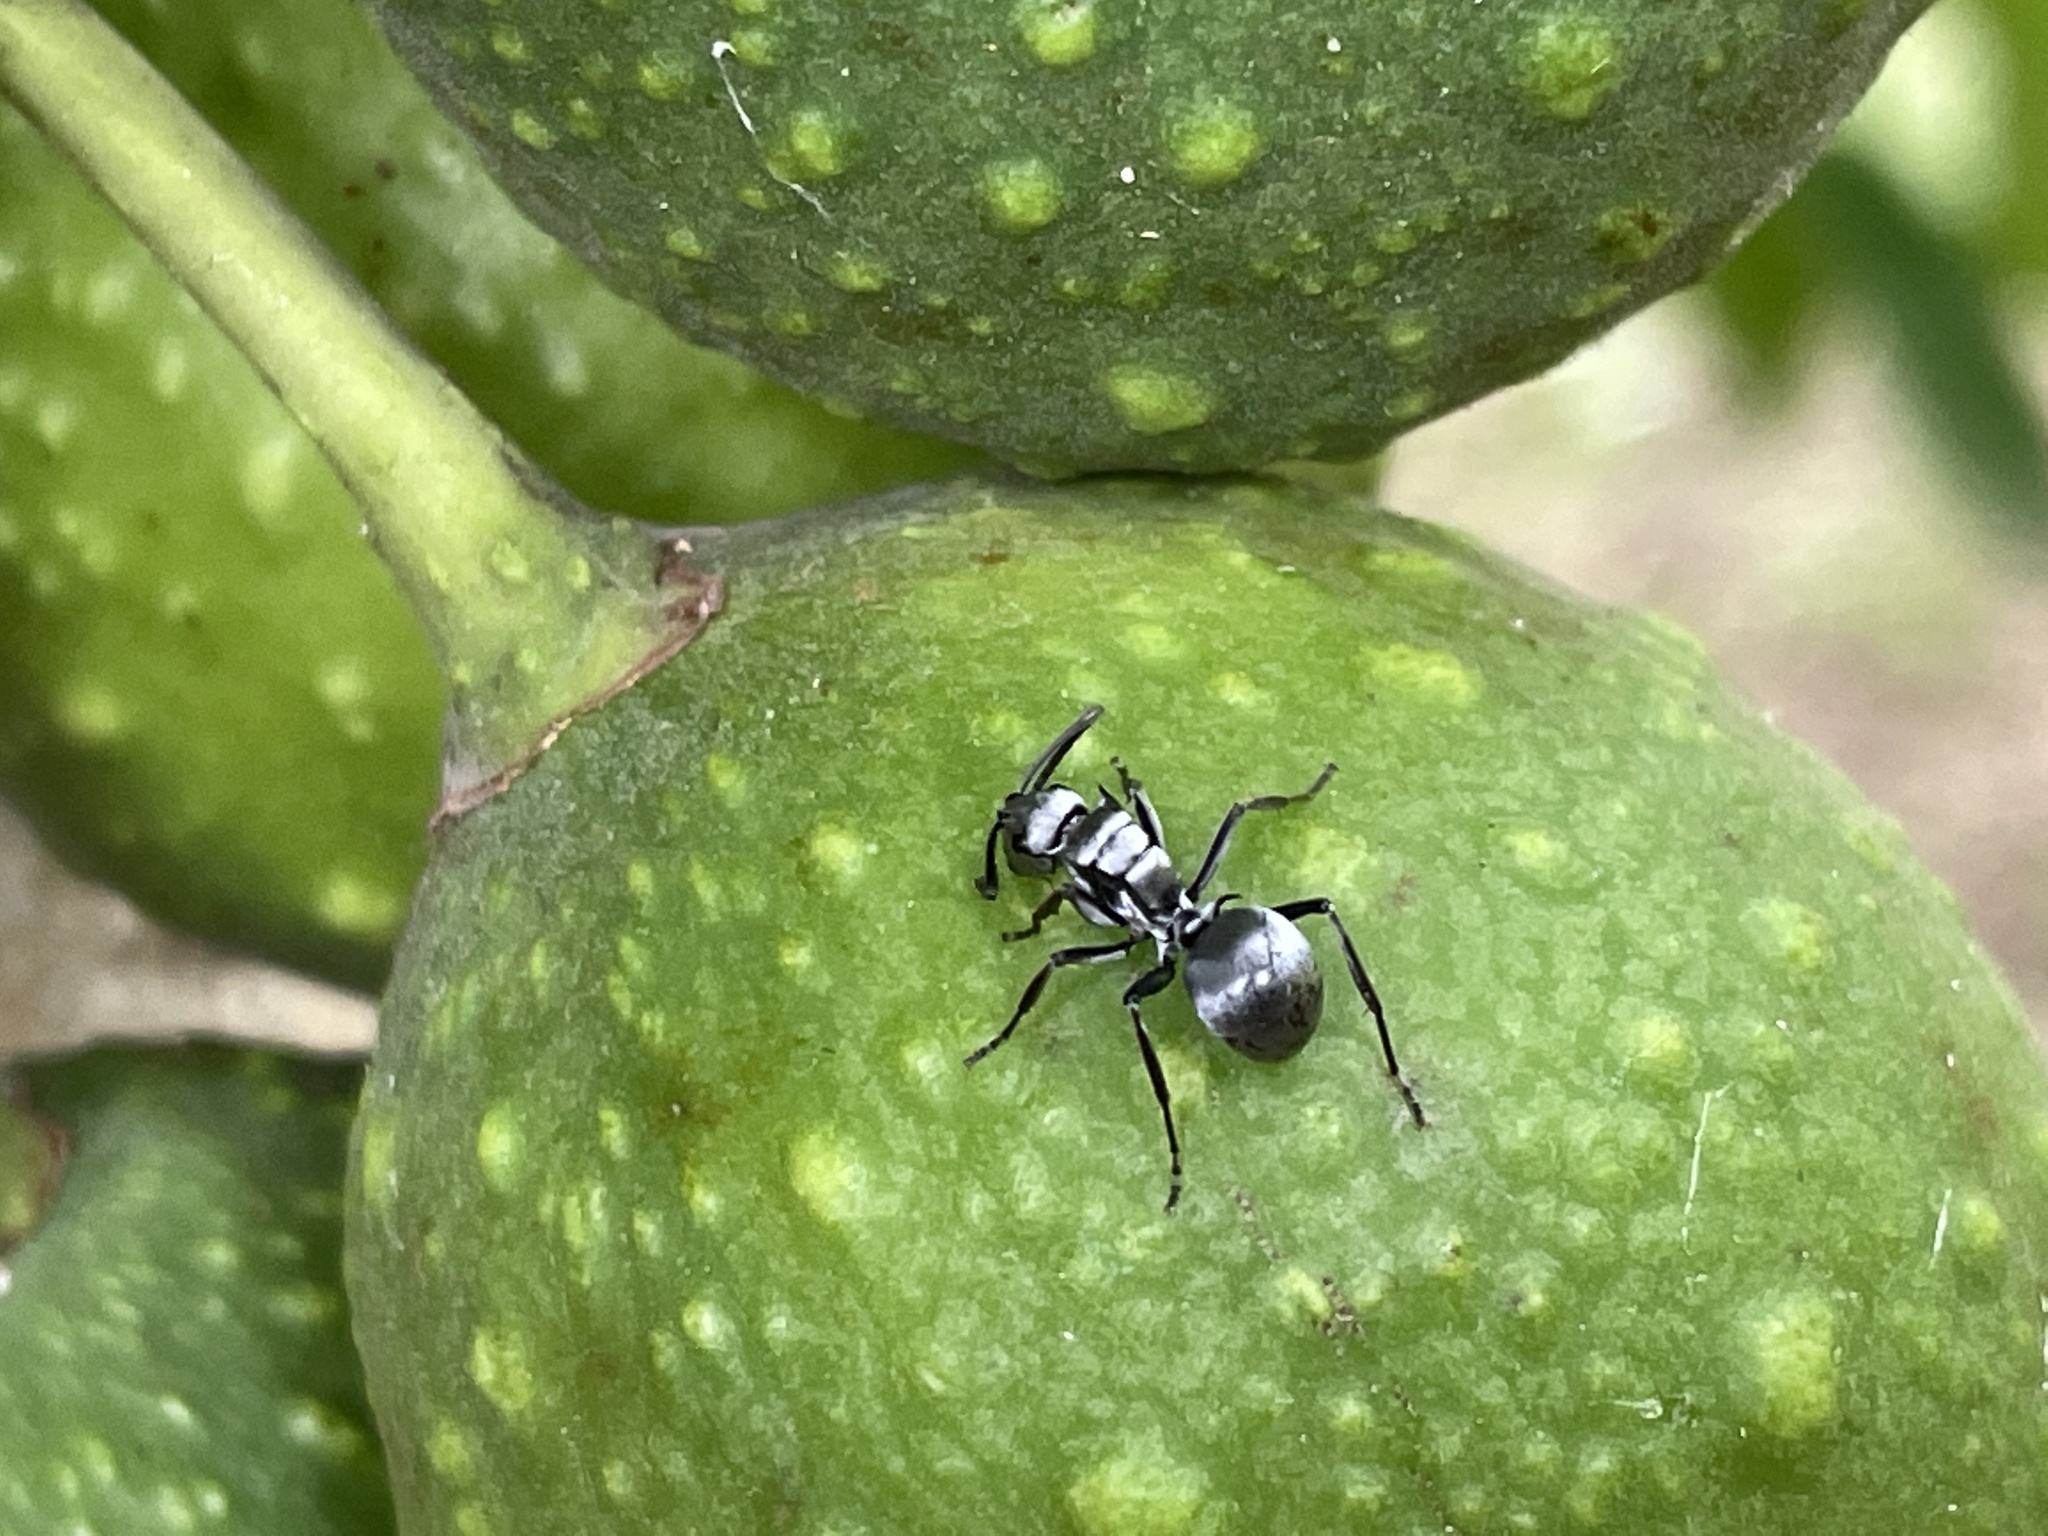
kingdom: Animalia
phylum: Arthropoda
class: Insecta
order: Hymenoptera
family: Formicidae
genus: Polyrhachis
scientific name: Polyrhachis schlueteri
